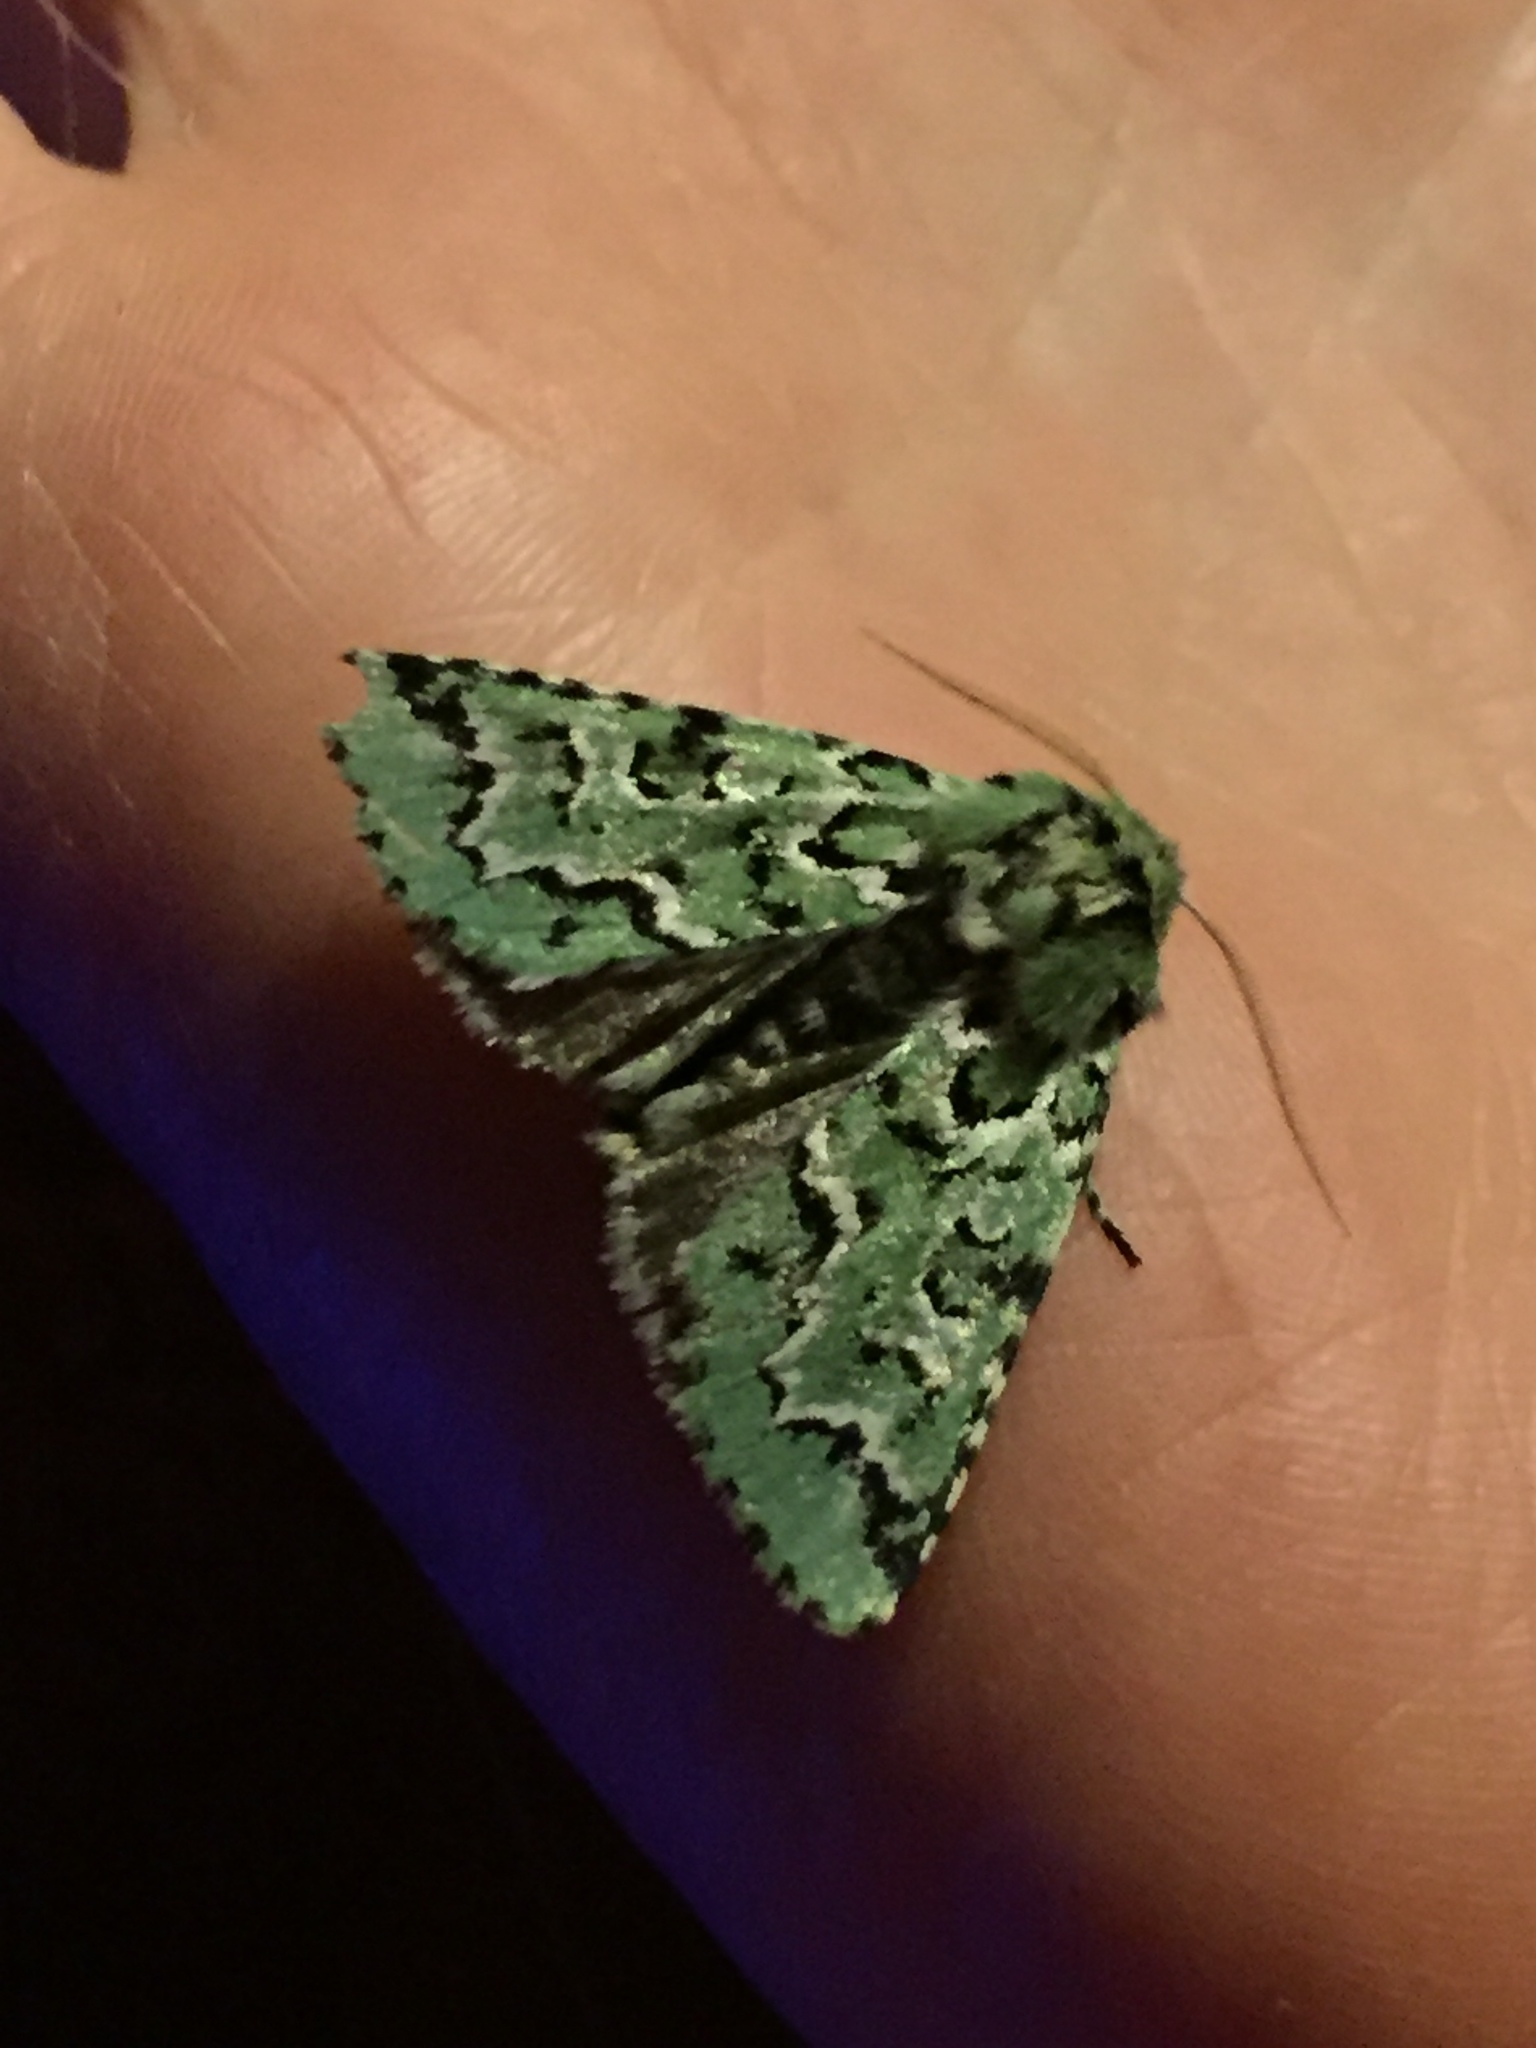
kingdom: Animalia
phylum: Arthropoda
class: Insecta
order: Lepidoptera
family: Noctuidae
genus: Feralia
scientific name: Feralia deceptiva
